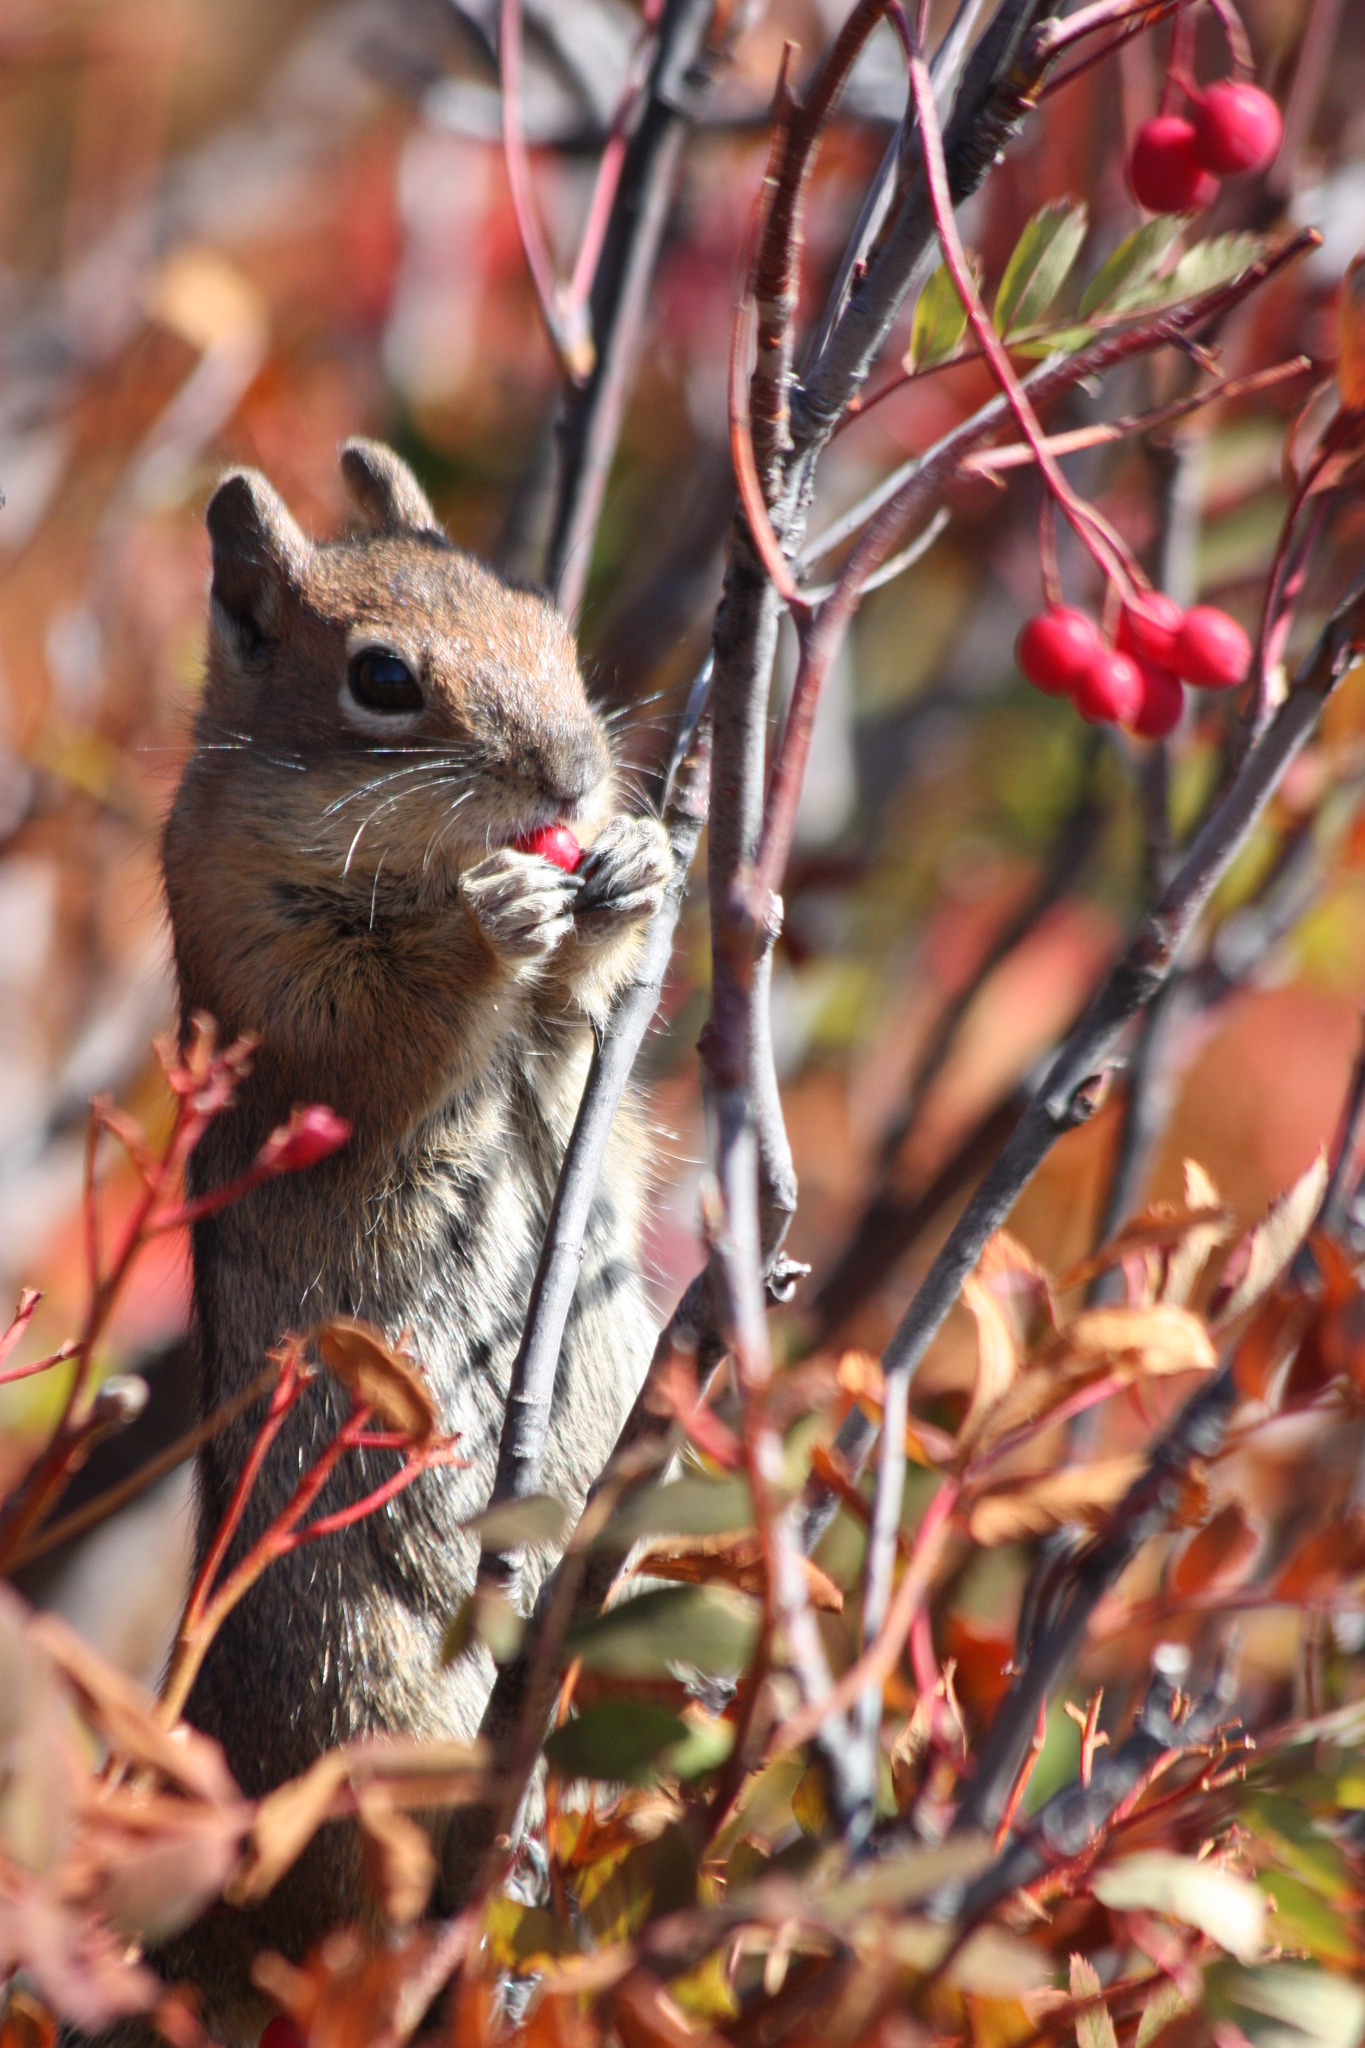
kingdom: Animalia
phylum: Chordata
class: Mammalia
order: Rodentia
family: Sciuridae
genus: Callospermophilus
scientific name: Callospermophilus saturatus
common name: Cascade golden-mantled ground squirrel
